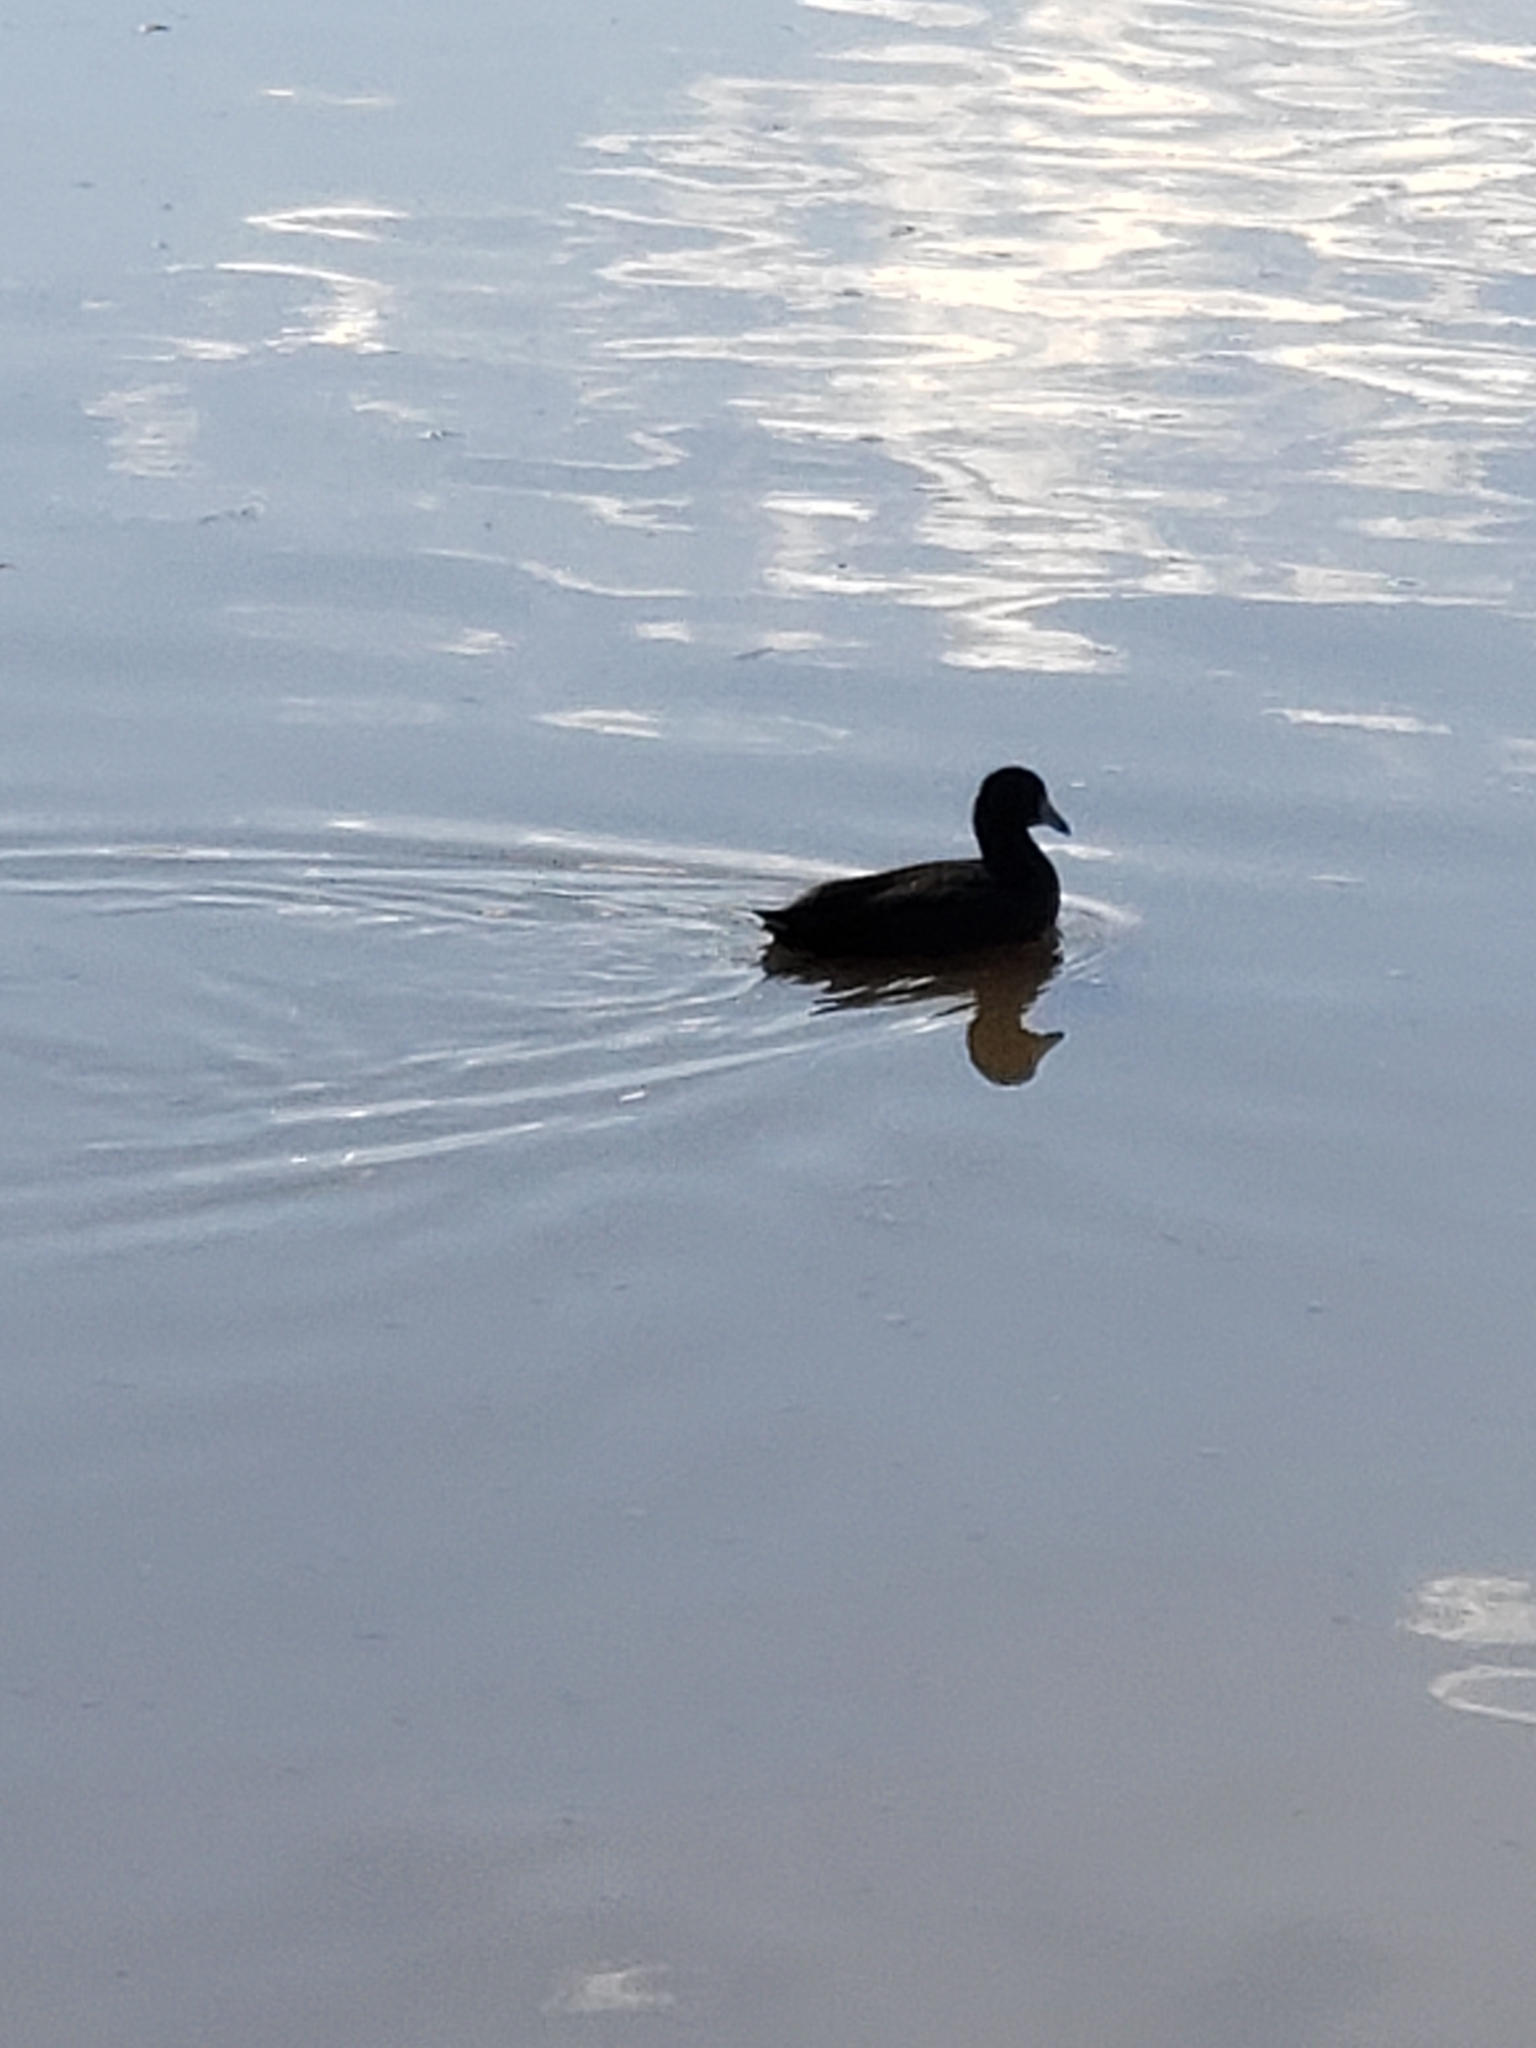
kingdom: Animalia
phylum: Chordata
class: Aves
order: Gruiformes
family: Rallidae
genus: Fulica
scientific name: Fulica americana
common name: American coot
